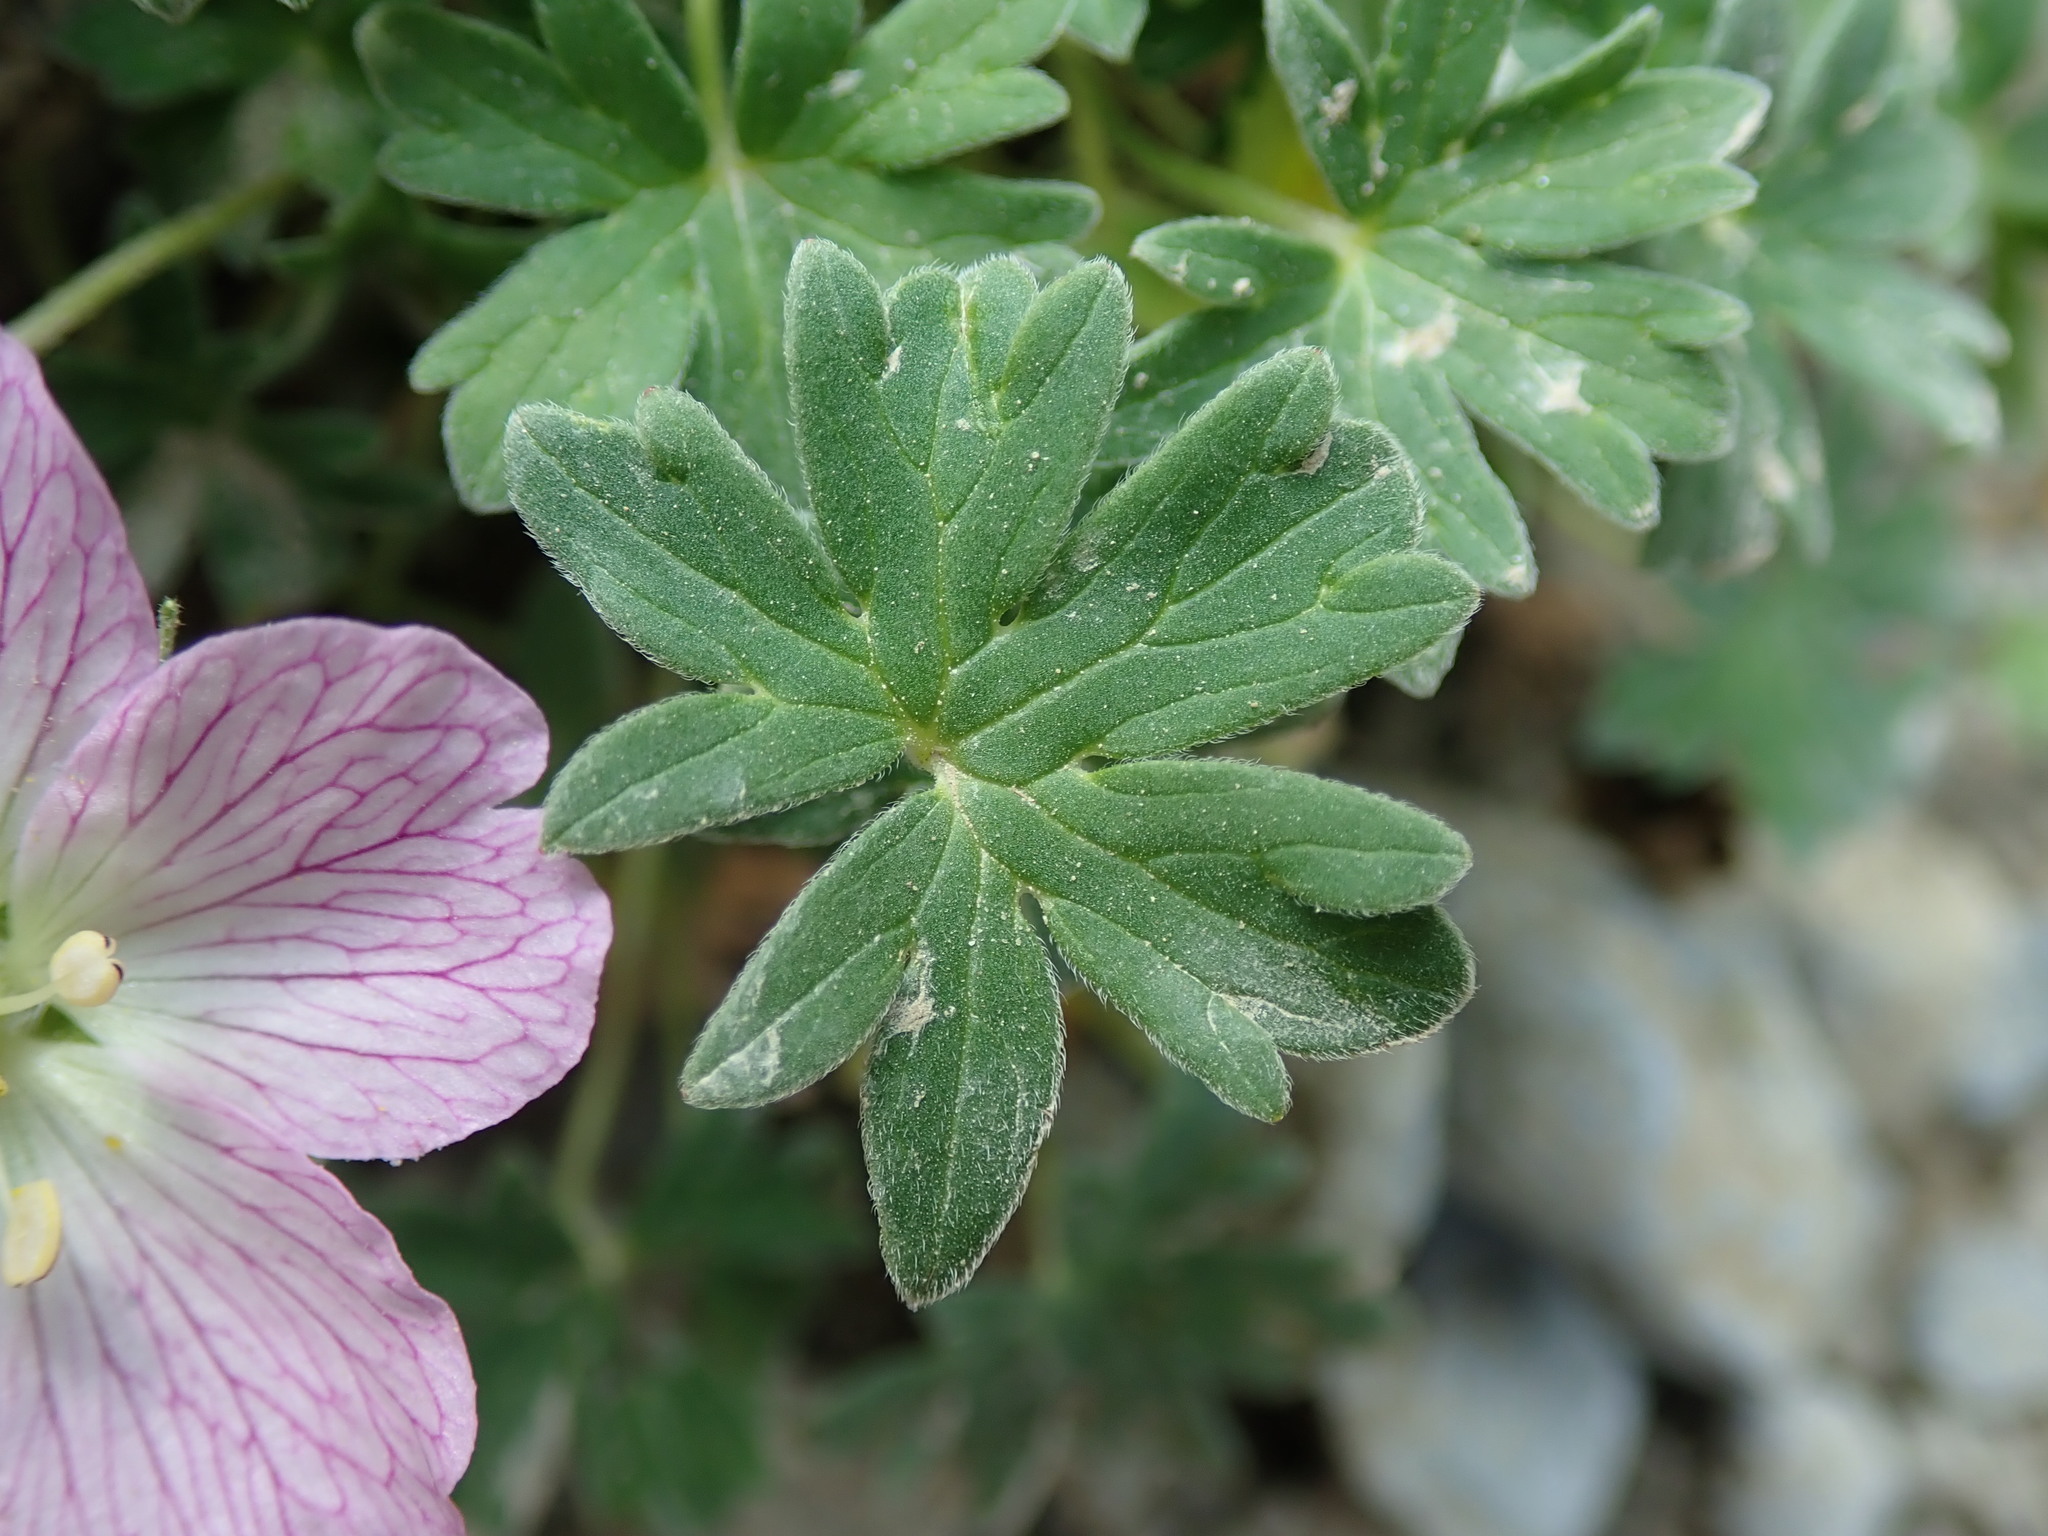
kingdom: Plantae
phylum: Tracheophyta
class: Magnoliopsida
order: Geraniales
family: Geraniaceae
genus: Geranium
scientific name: Geranium cinereum
